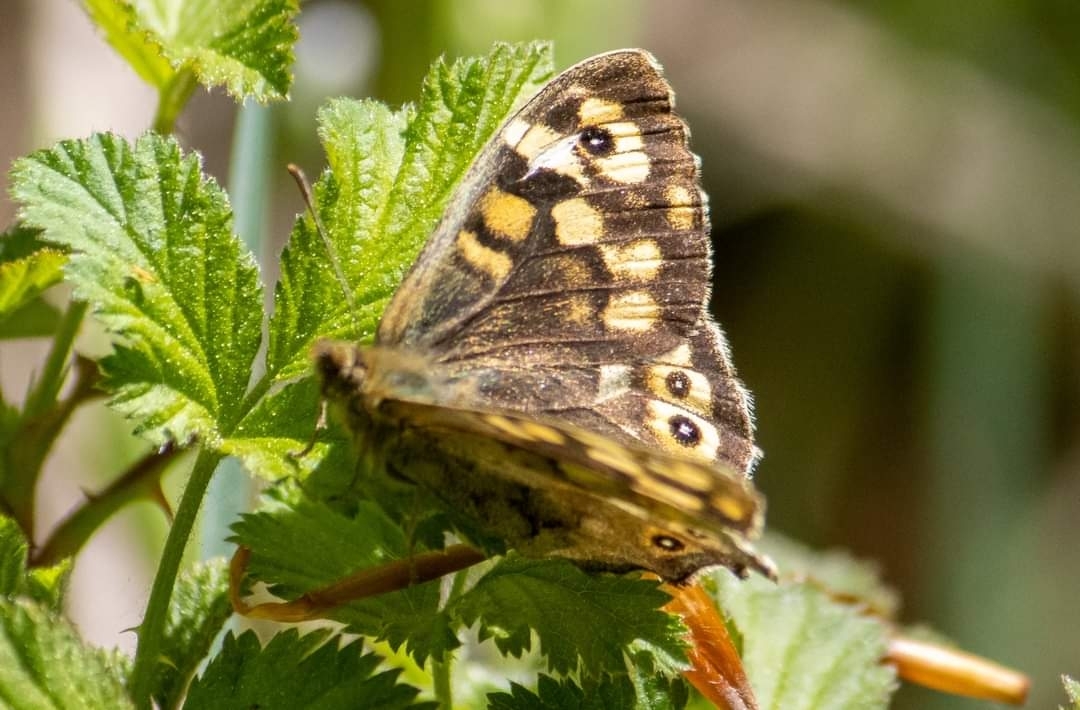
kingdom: Animalia
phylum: Arthropoda
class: Insecta
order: Lepidoptera
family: Nymphalidae
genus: Pararge
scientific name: Pararge aegeria
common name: Speckled wood
